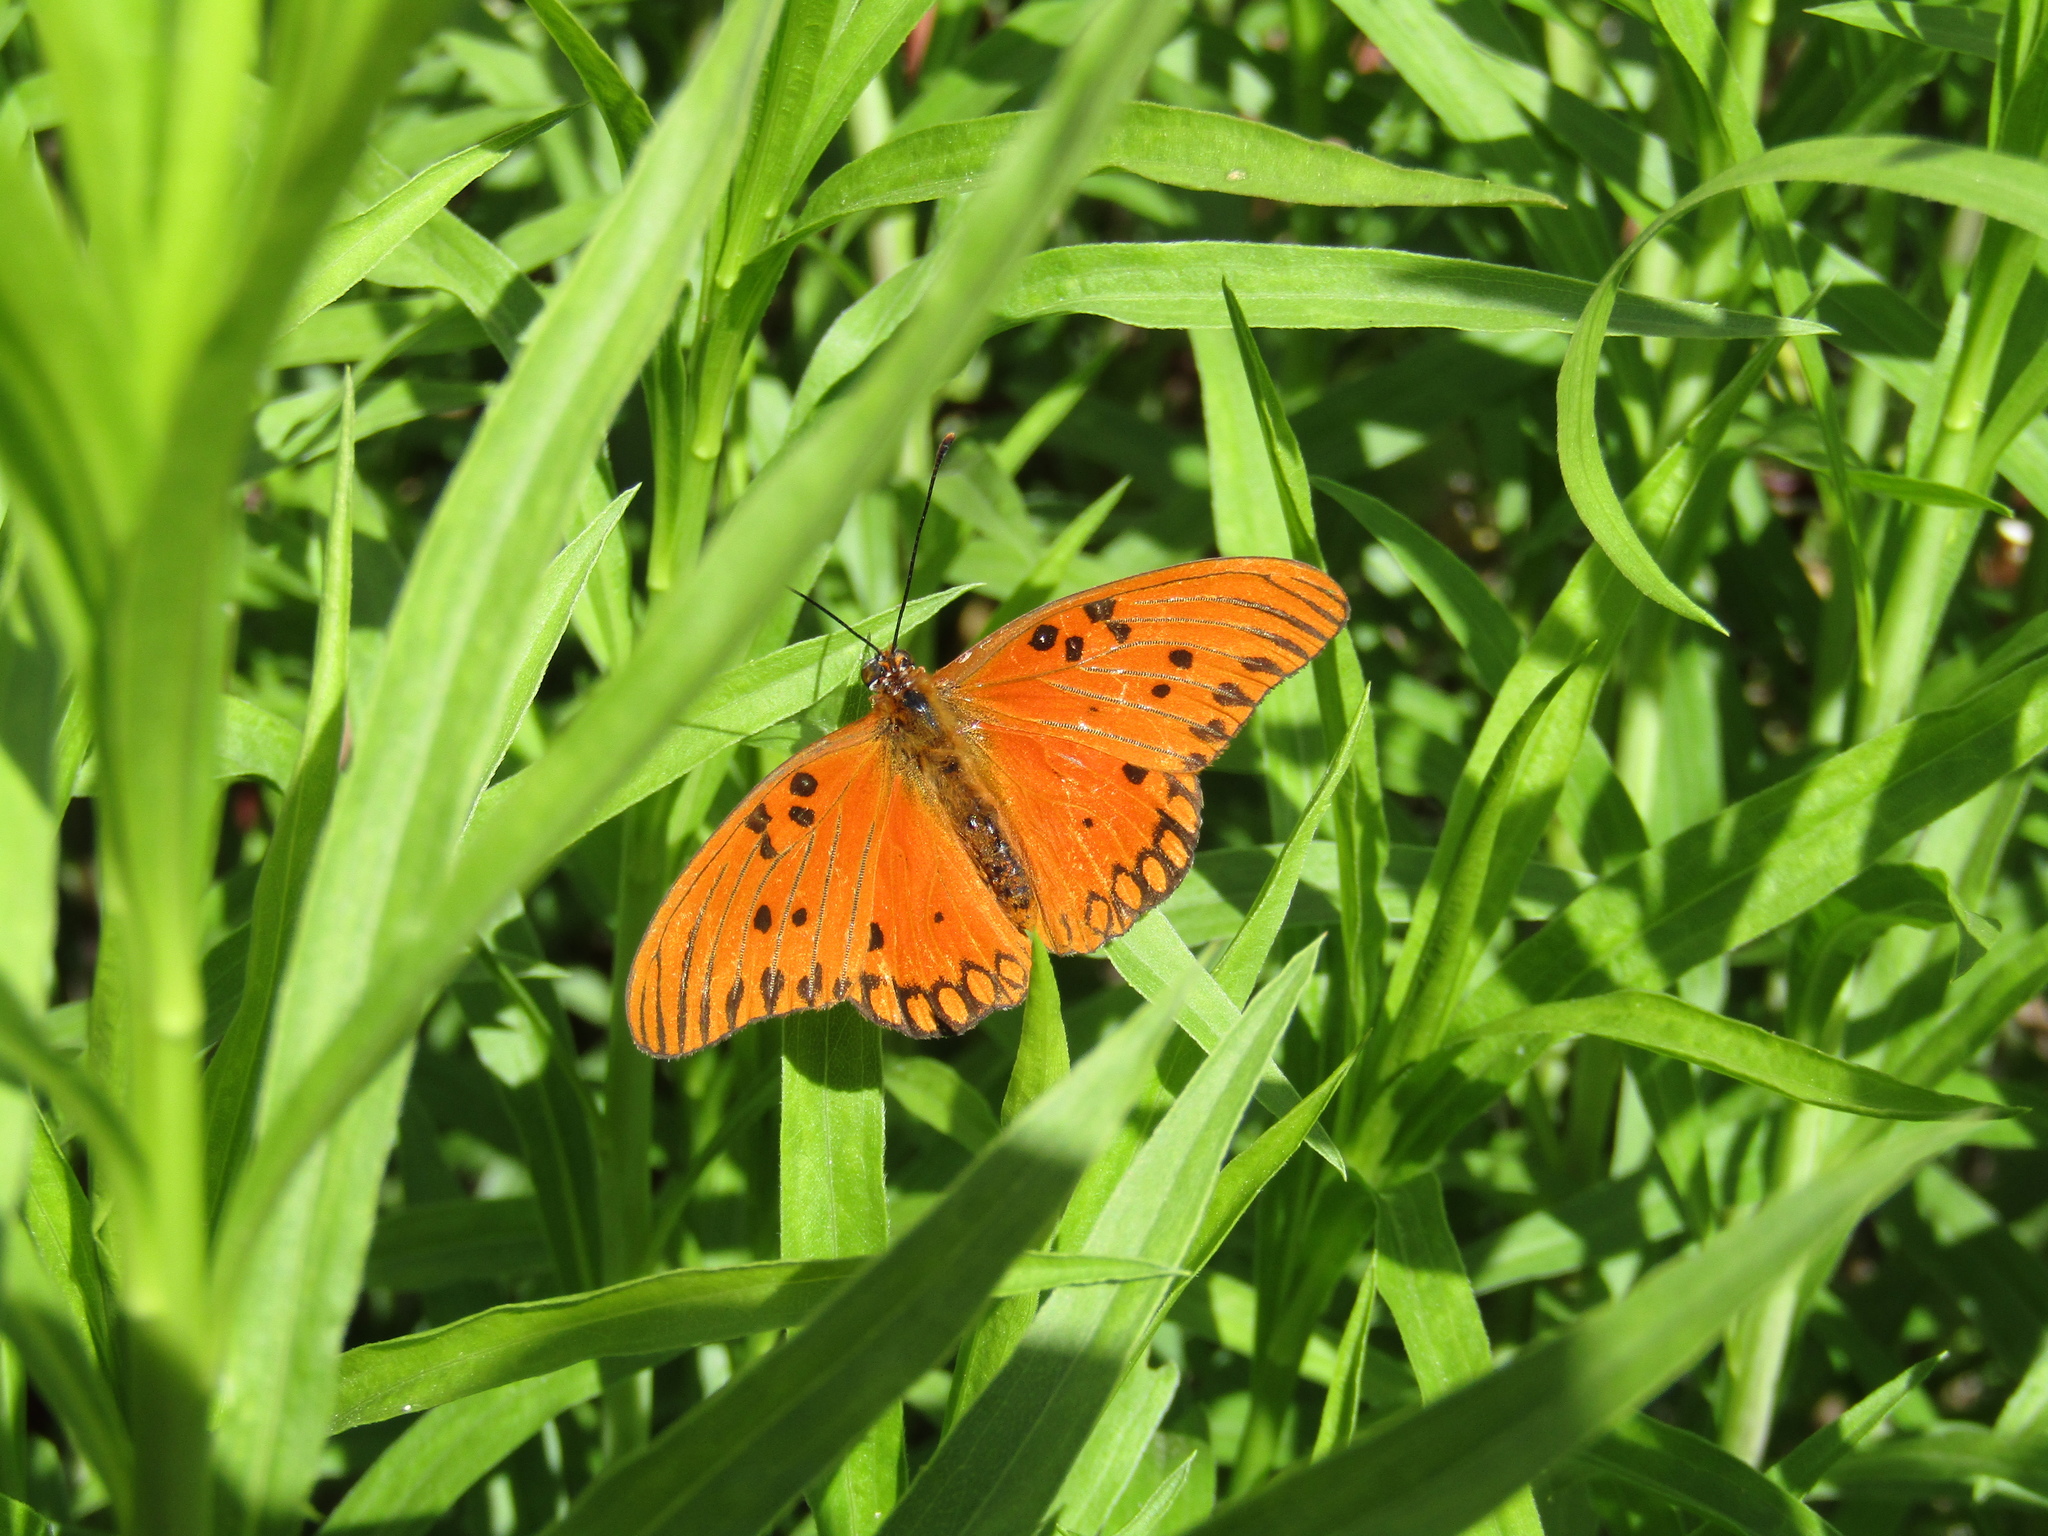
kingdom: Animalia
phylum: Arthropoda
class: Insecta
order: Lepidoptera
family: Nymphalidae
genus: Dione
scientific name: Dione vanillae
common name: Gulf fritillary
